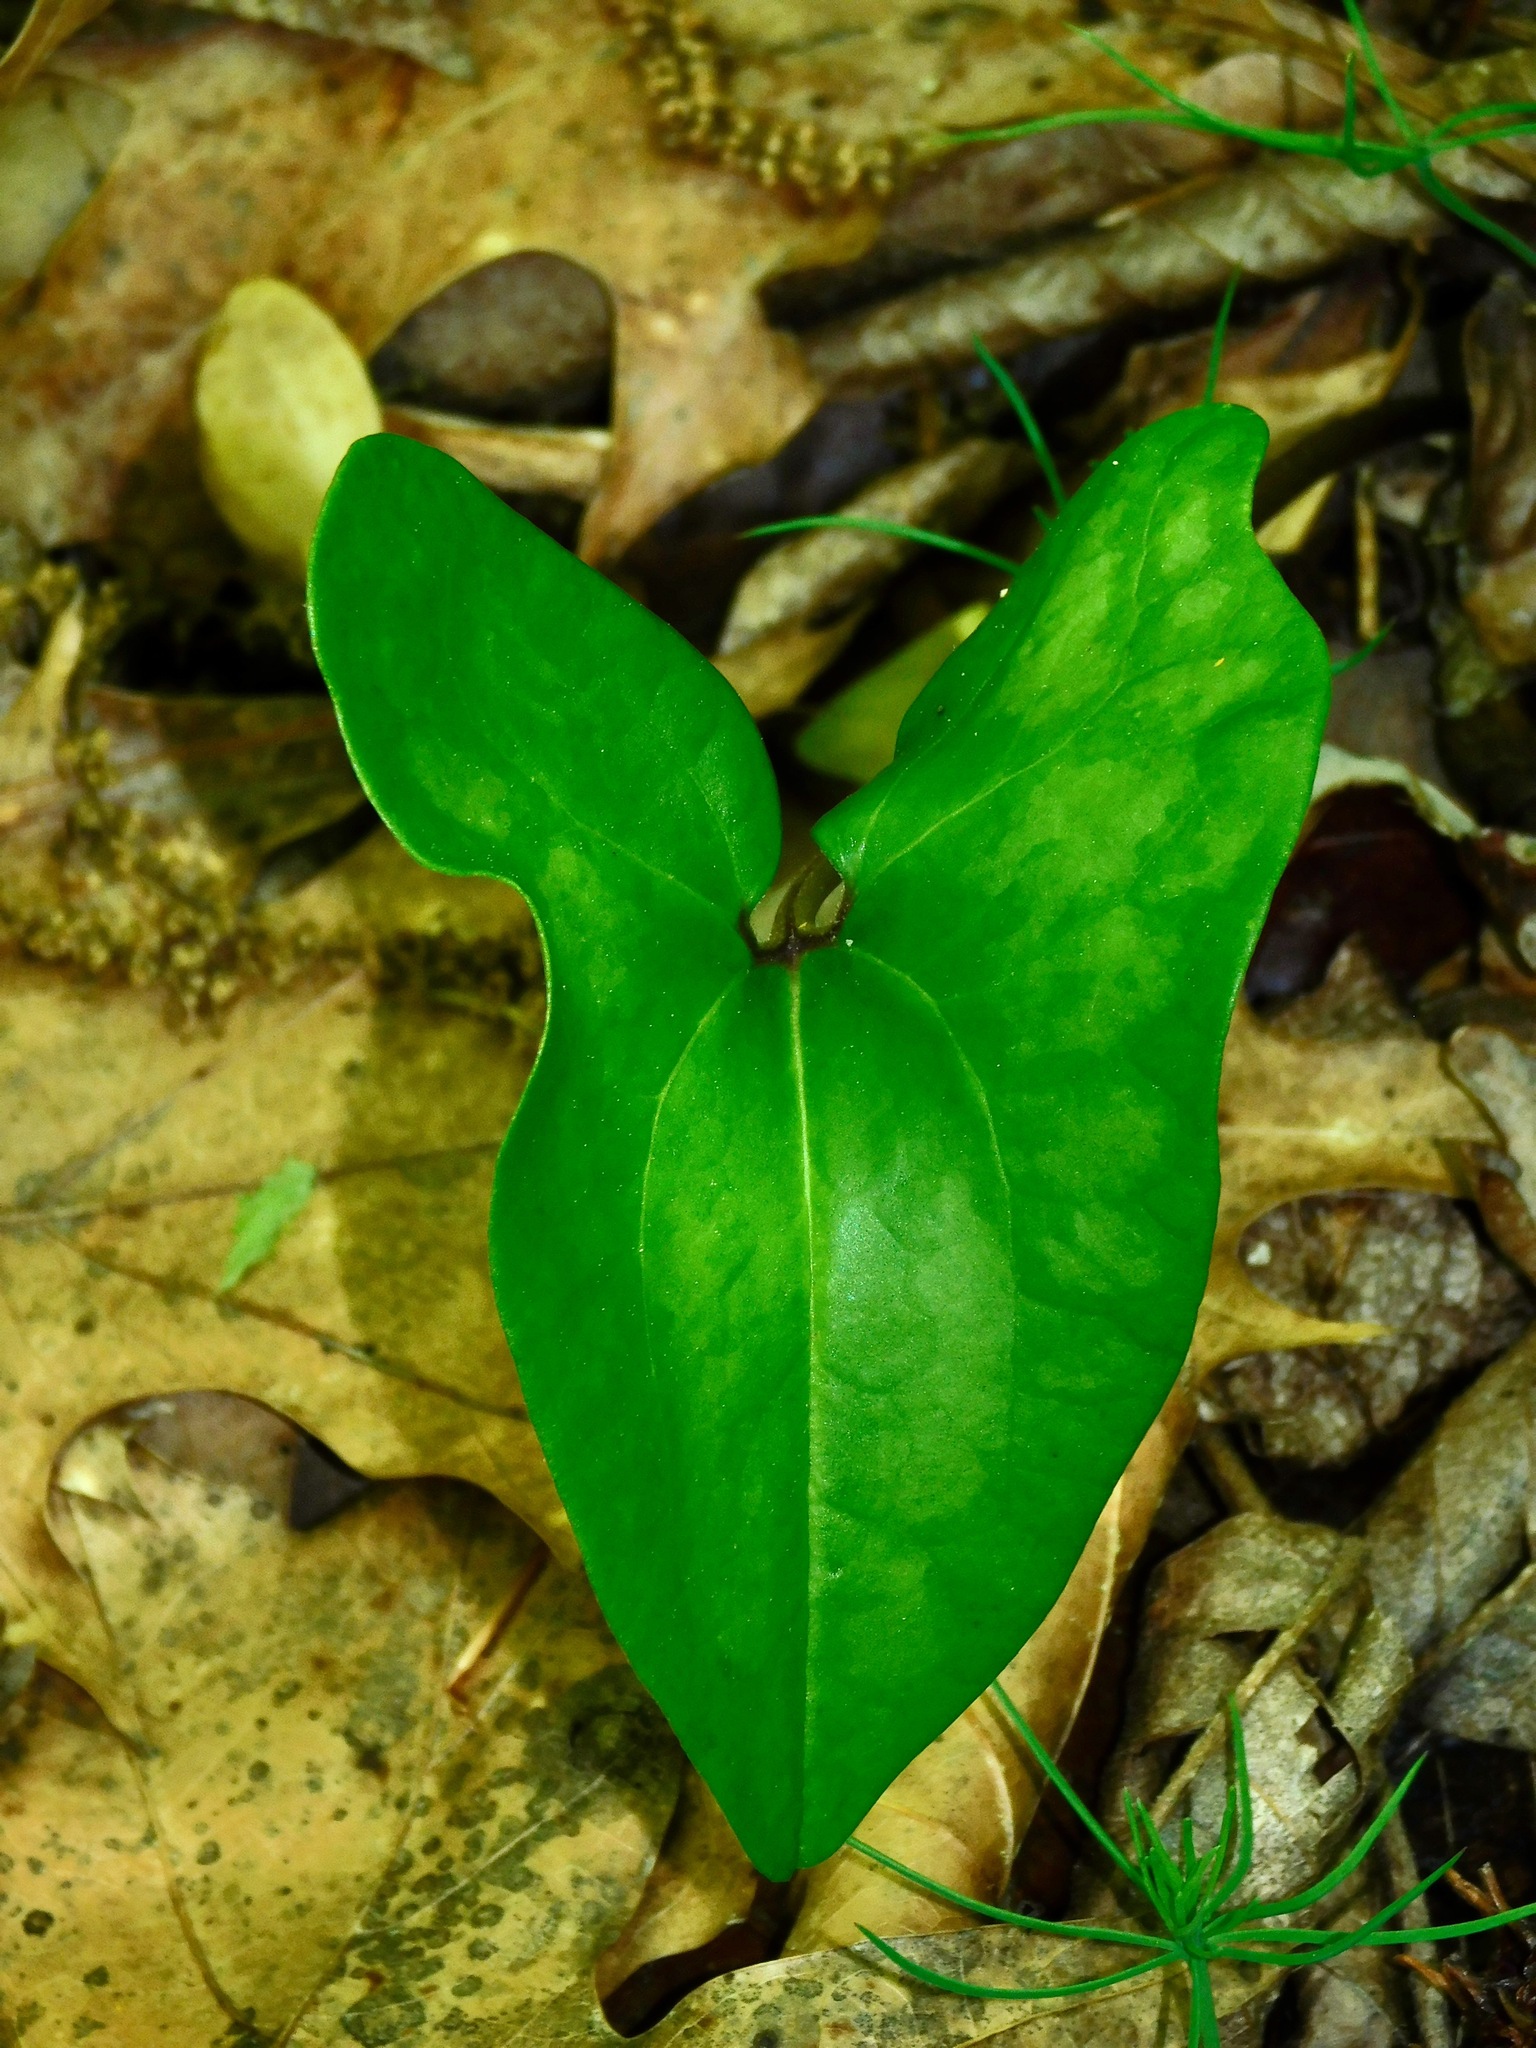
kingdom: Plantae
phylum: Tracheophyta
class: Magnoliopsida
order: Piperales
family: Aristolochiaceae
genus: Hexastylis
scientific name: Hexastylis arifolia
